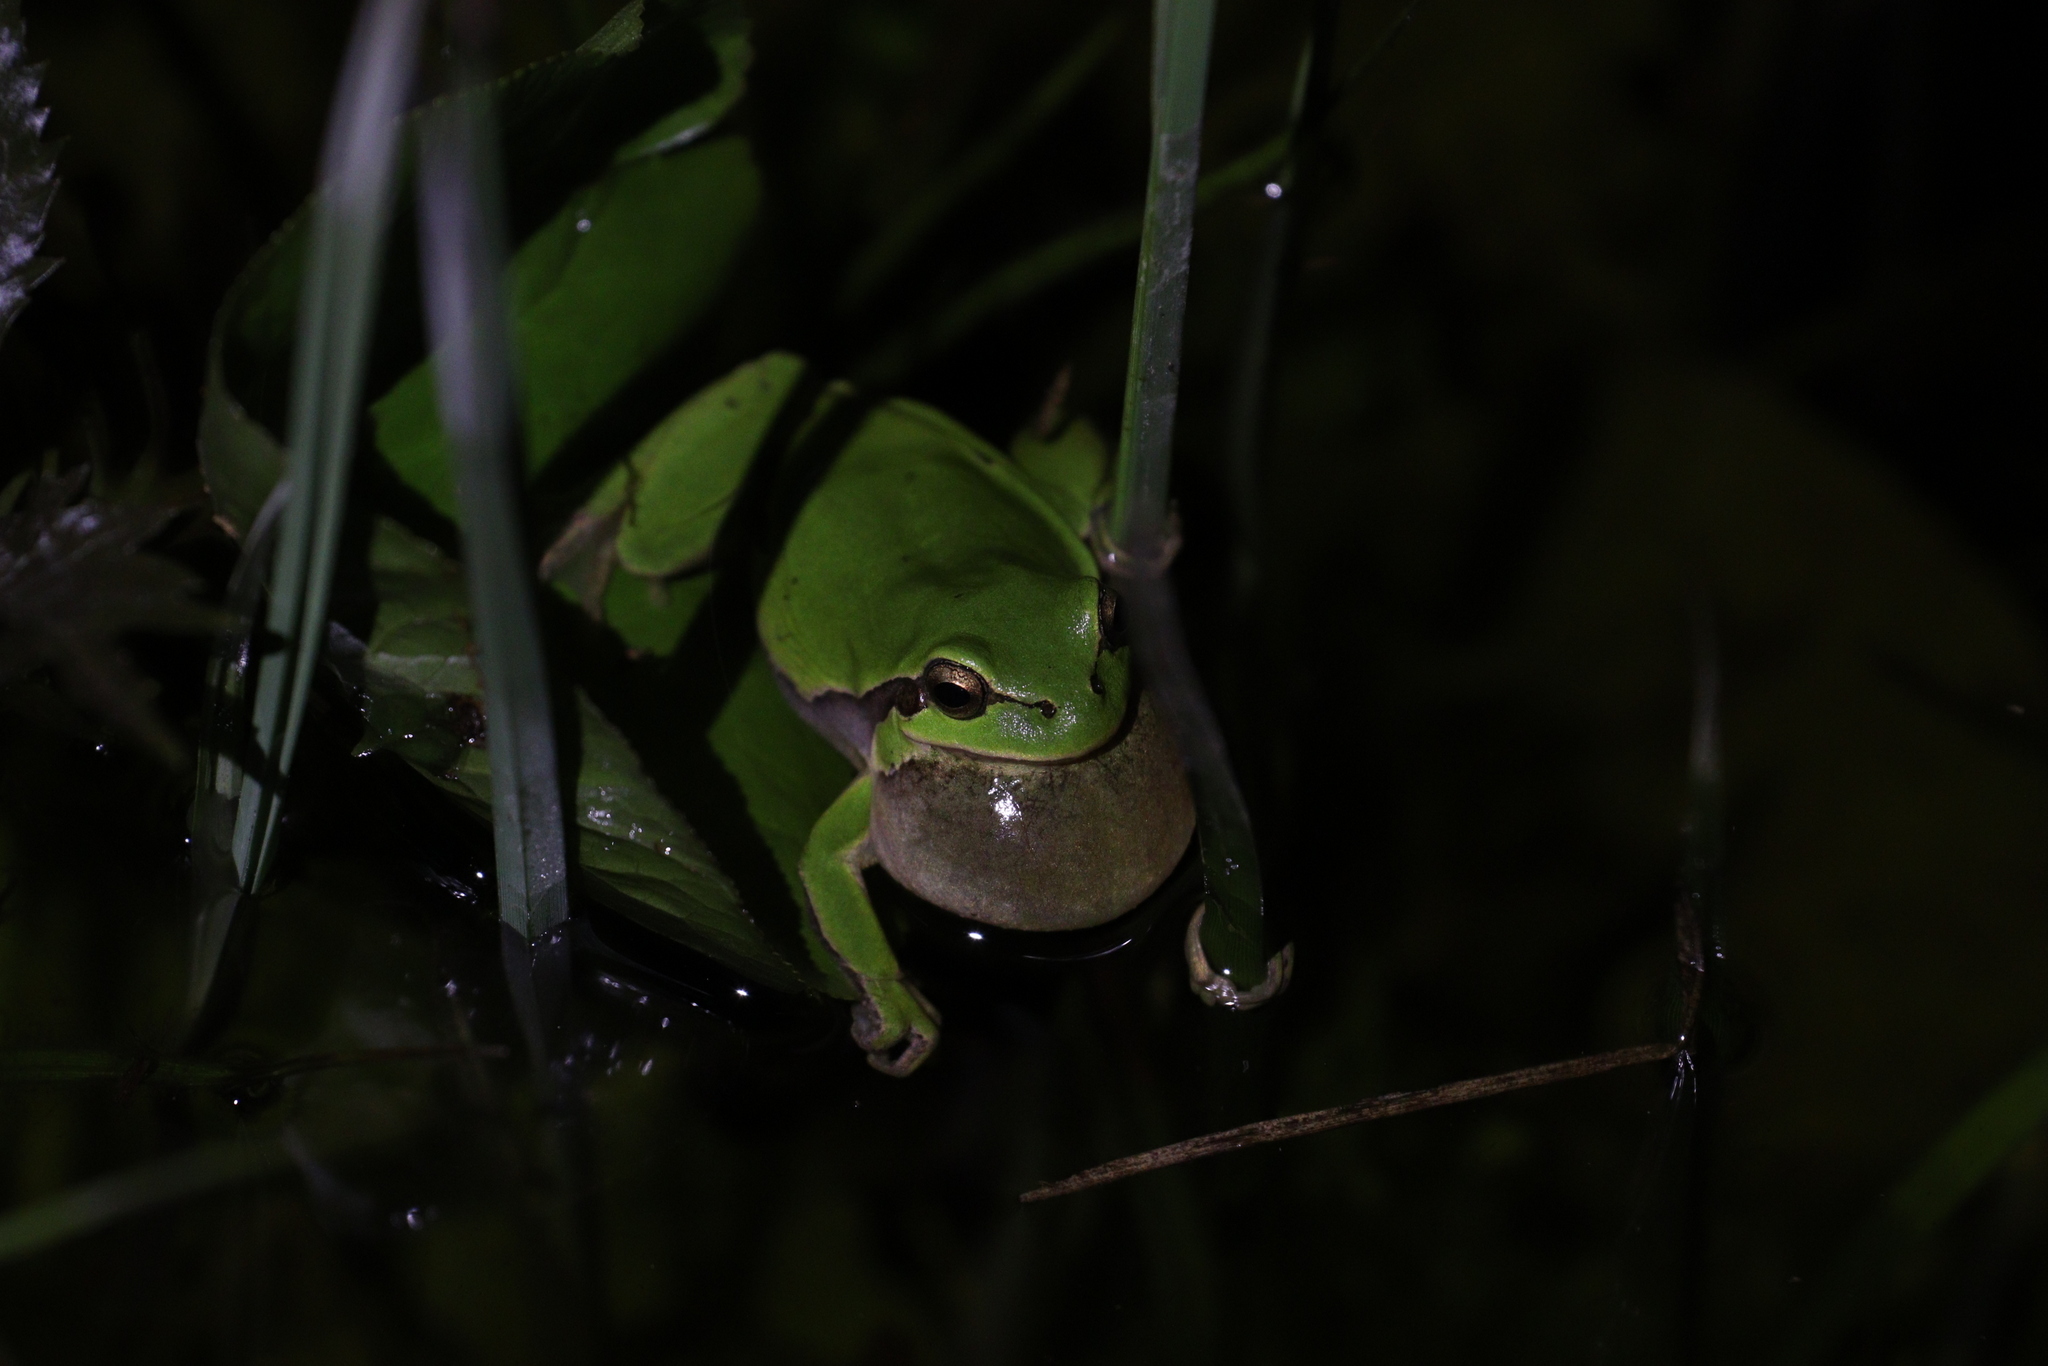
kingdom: Animalia
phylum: Chordata
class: Amphibia
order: Anura
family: Hylidae
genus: Hyla
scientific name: Hyla orientalis
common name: Caucasian treefrog
